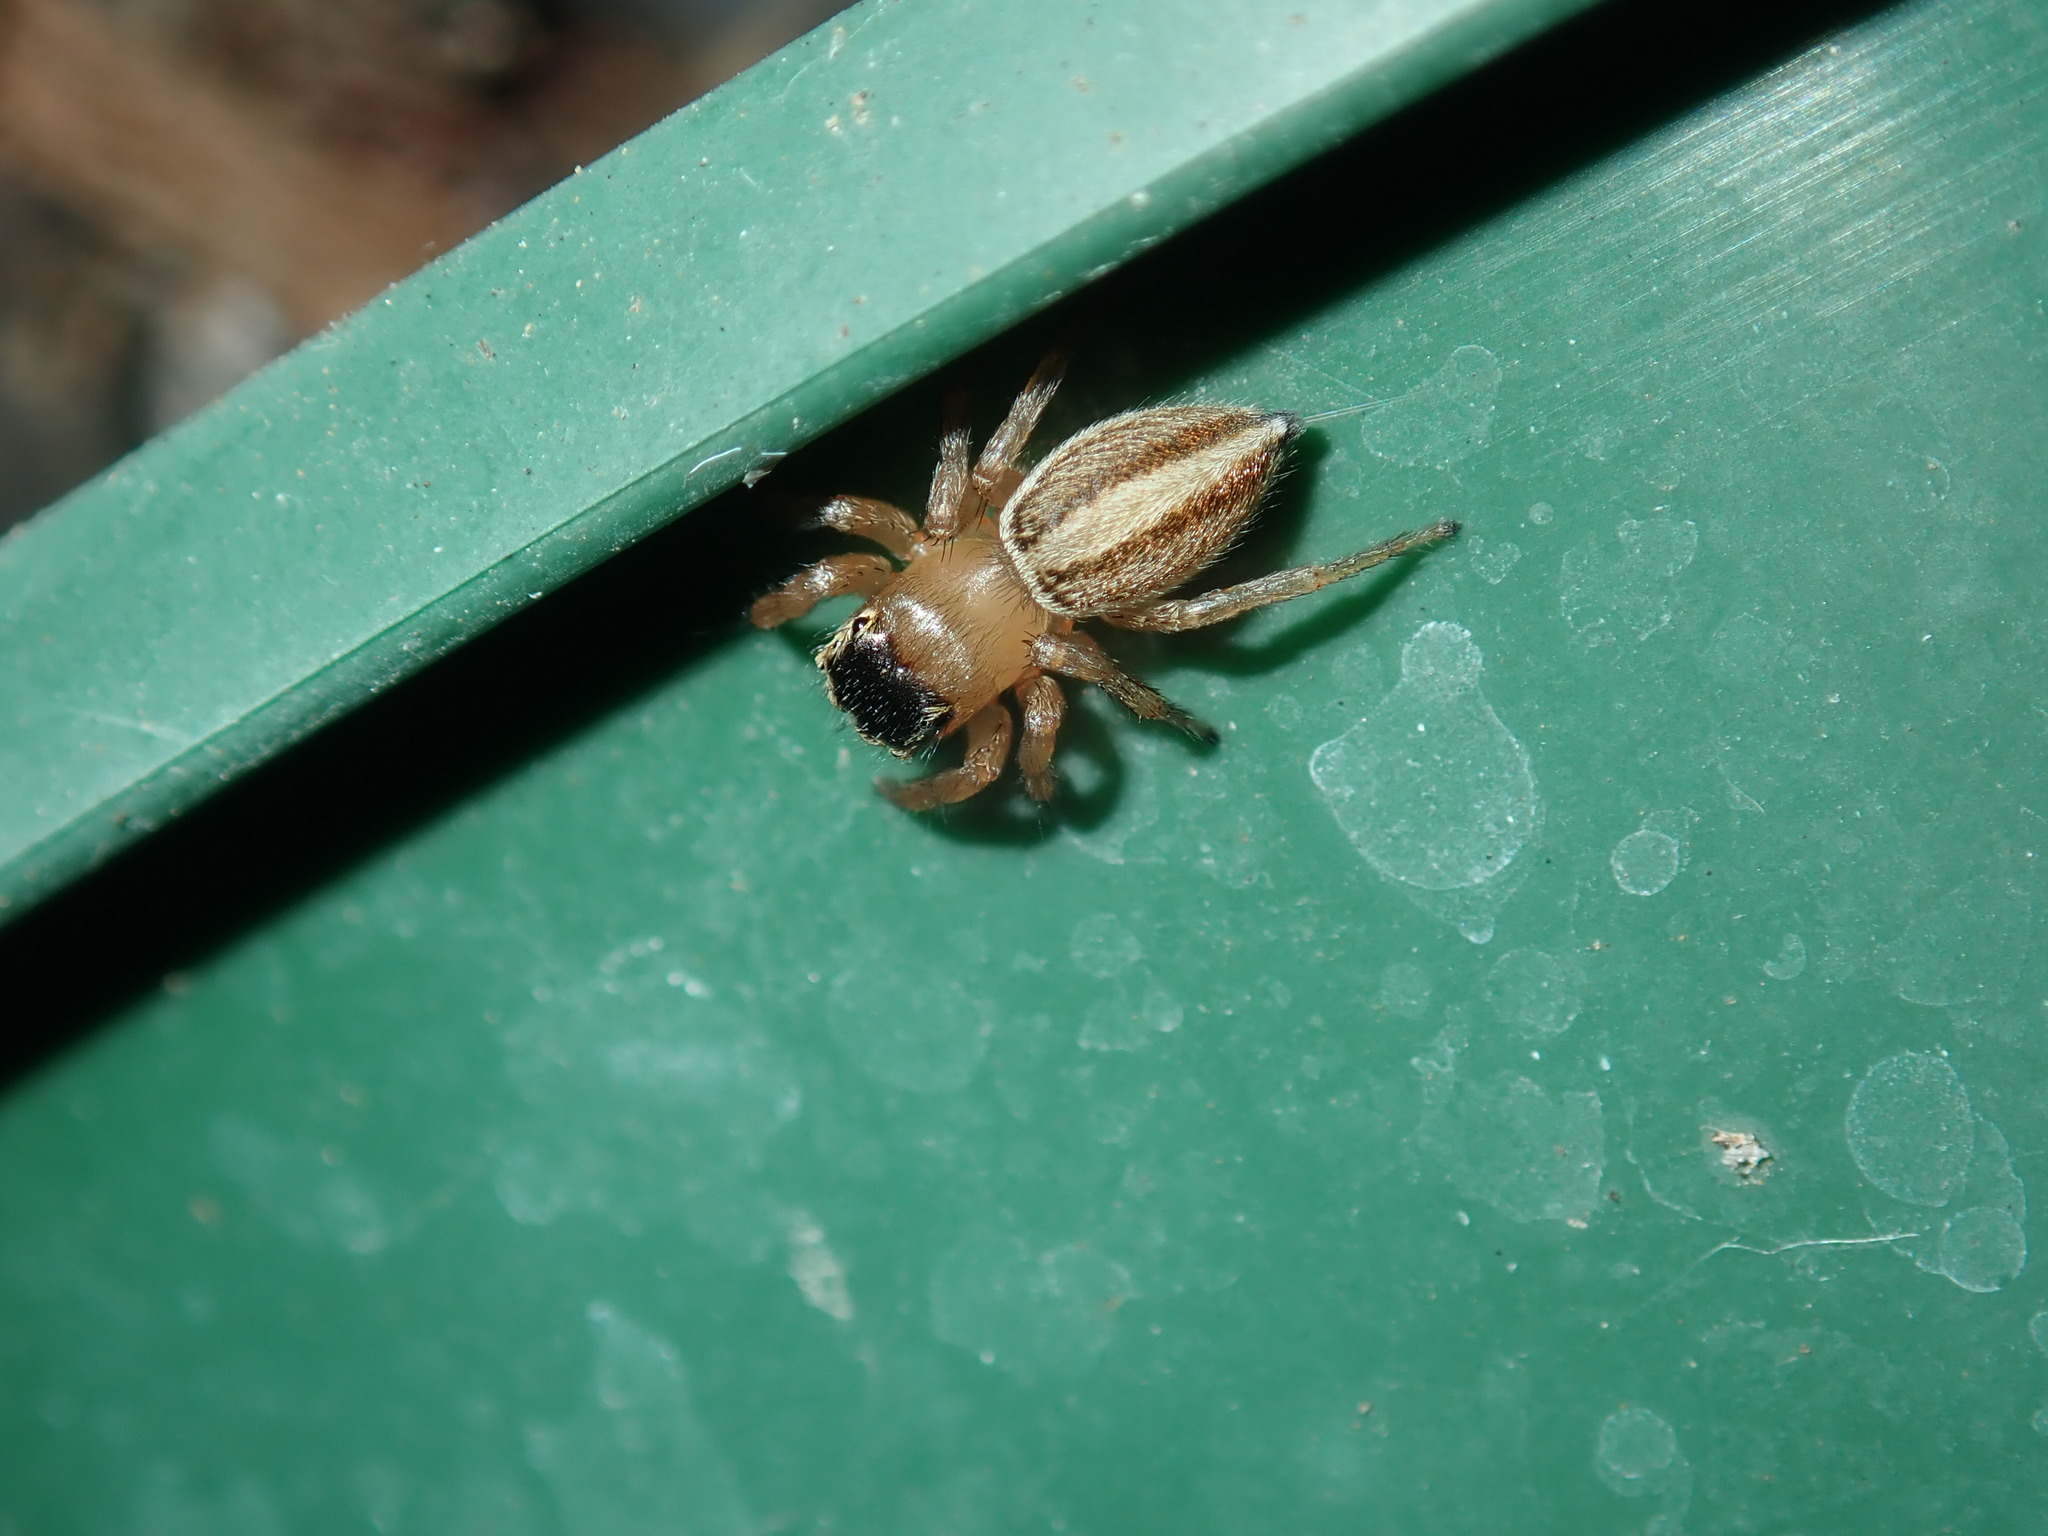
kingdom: Animalia
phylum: Arthropoda
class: Arachnida
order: Araneae
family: Salticidae
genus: Maratus
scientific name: Maratus scutulatus
